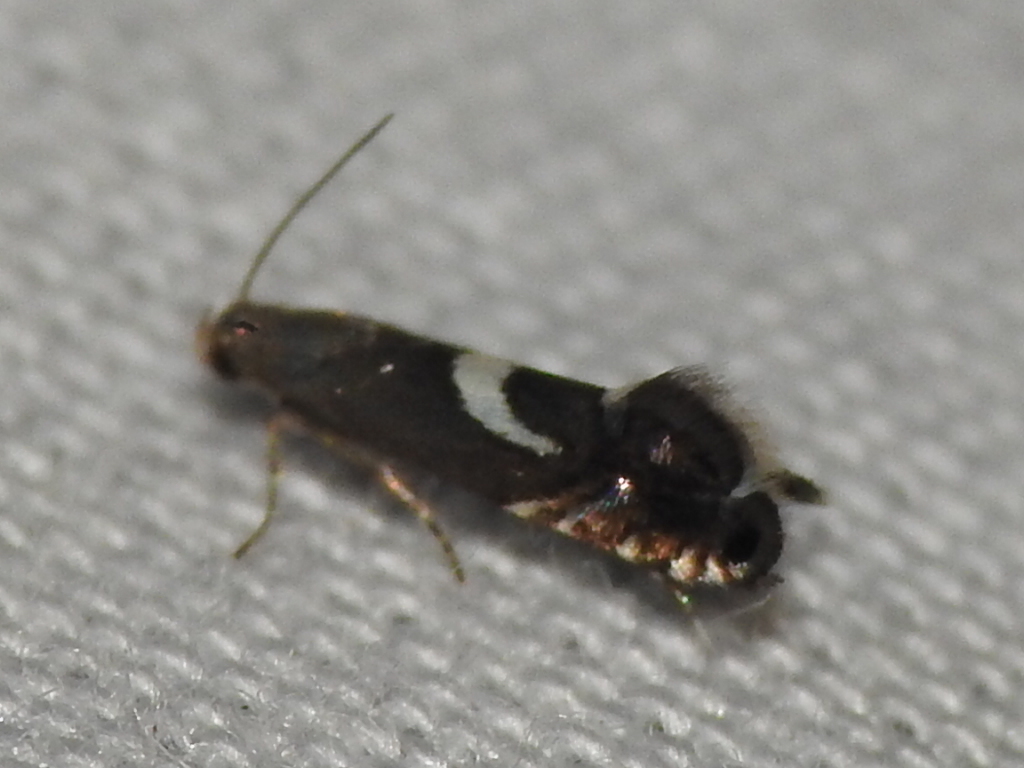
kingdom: Animalia
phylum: Arthropoda
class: Insecta
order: Lepidoptera
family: Glyphipterigidae
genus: Glyphipterix
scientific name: Glyphipterix Diploschizia impigritella
